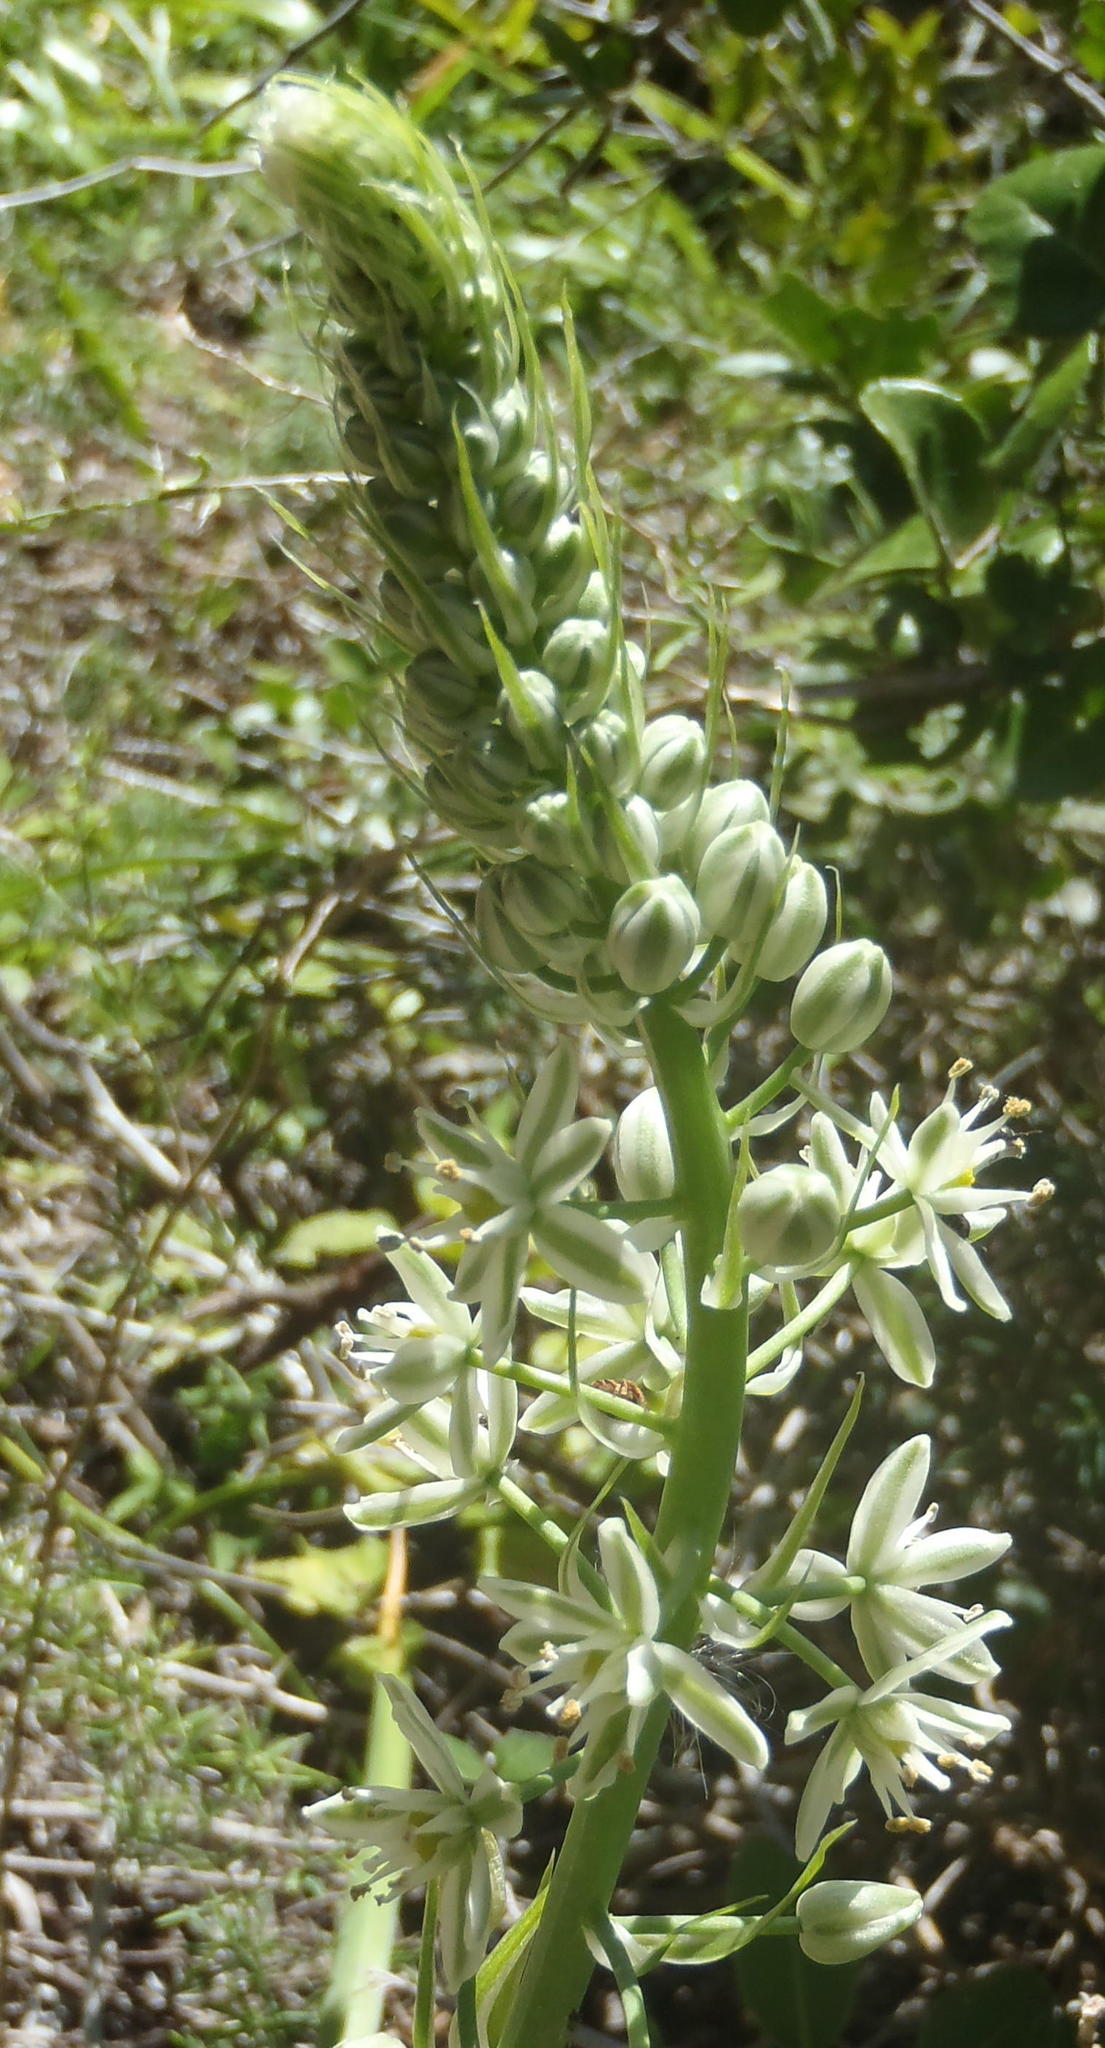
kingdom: Plantae
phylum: Tracheophyta
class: Liliopsida
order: Asparagales
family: Asparagaceae
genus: Albuca
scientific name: Albuca bracteata
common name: Sea-onion
